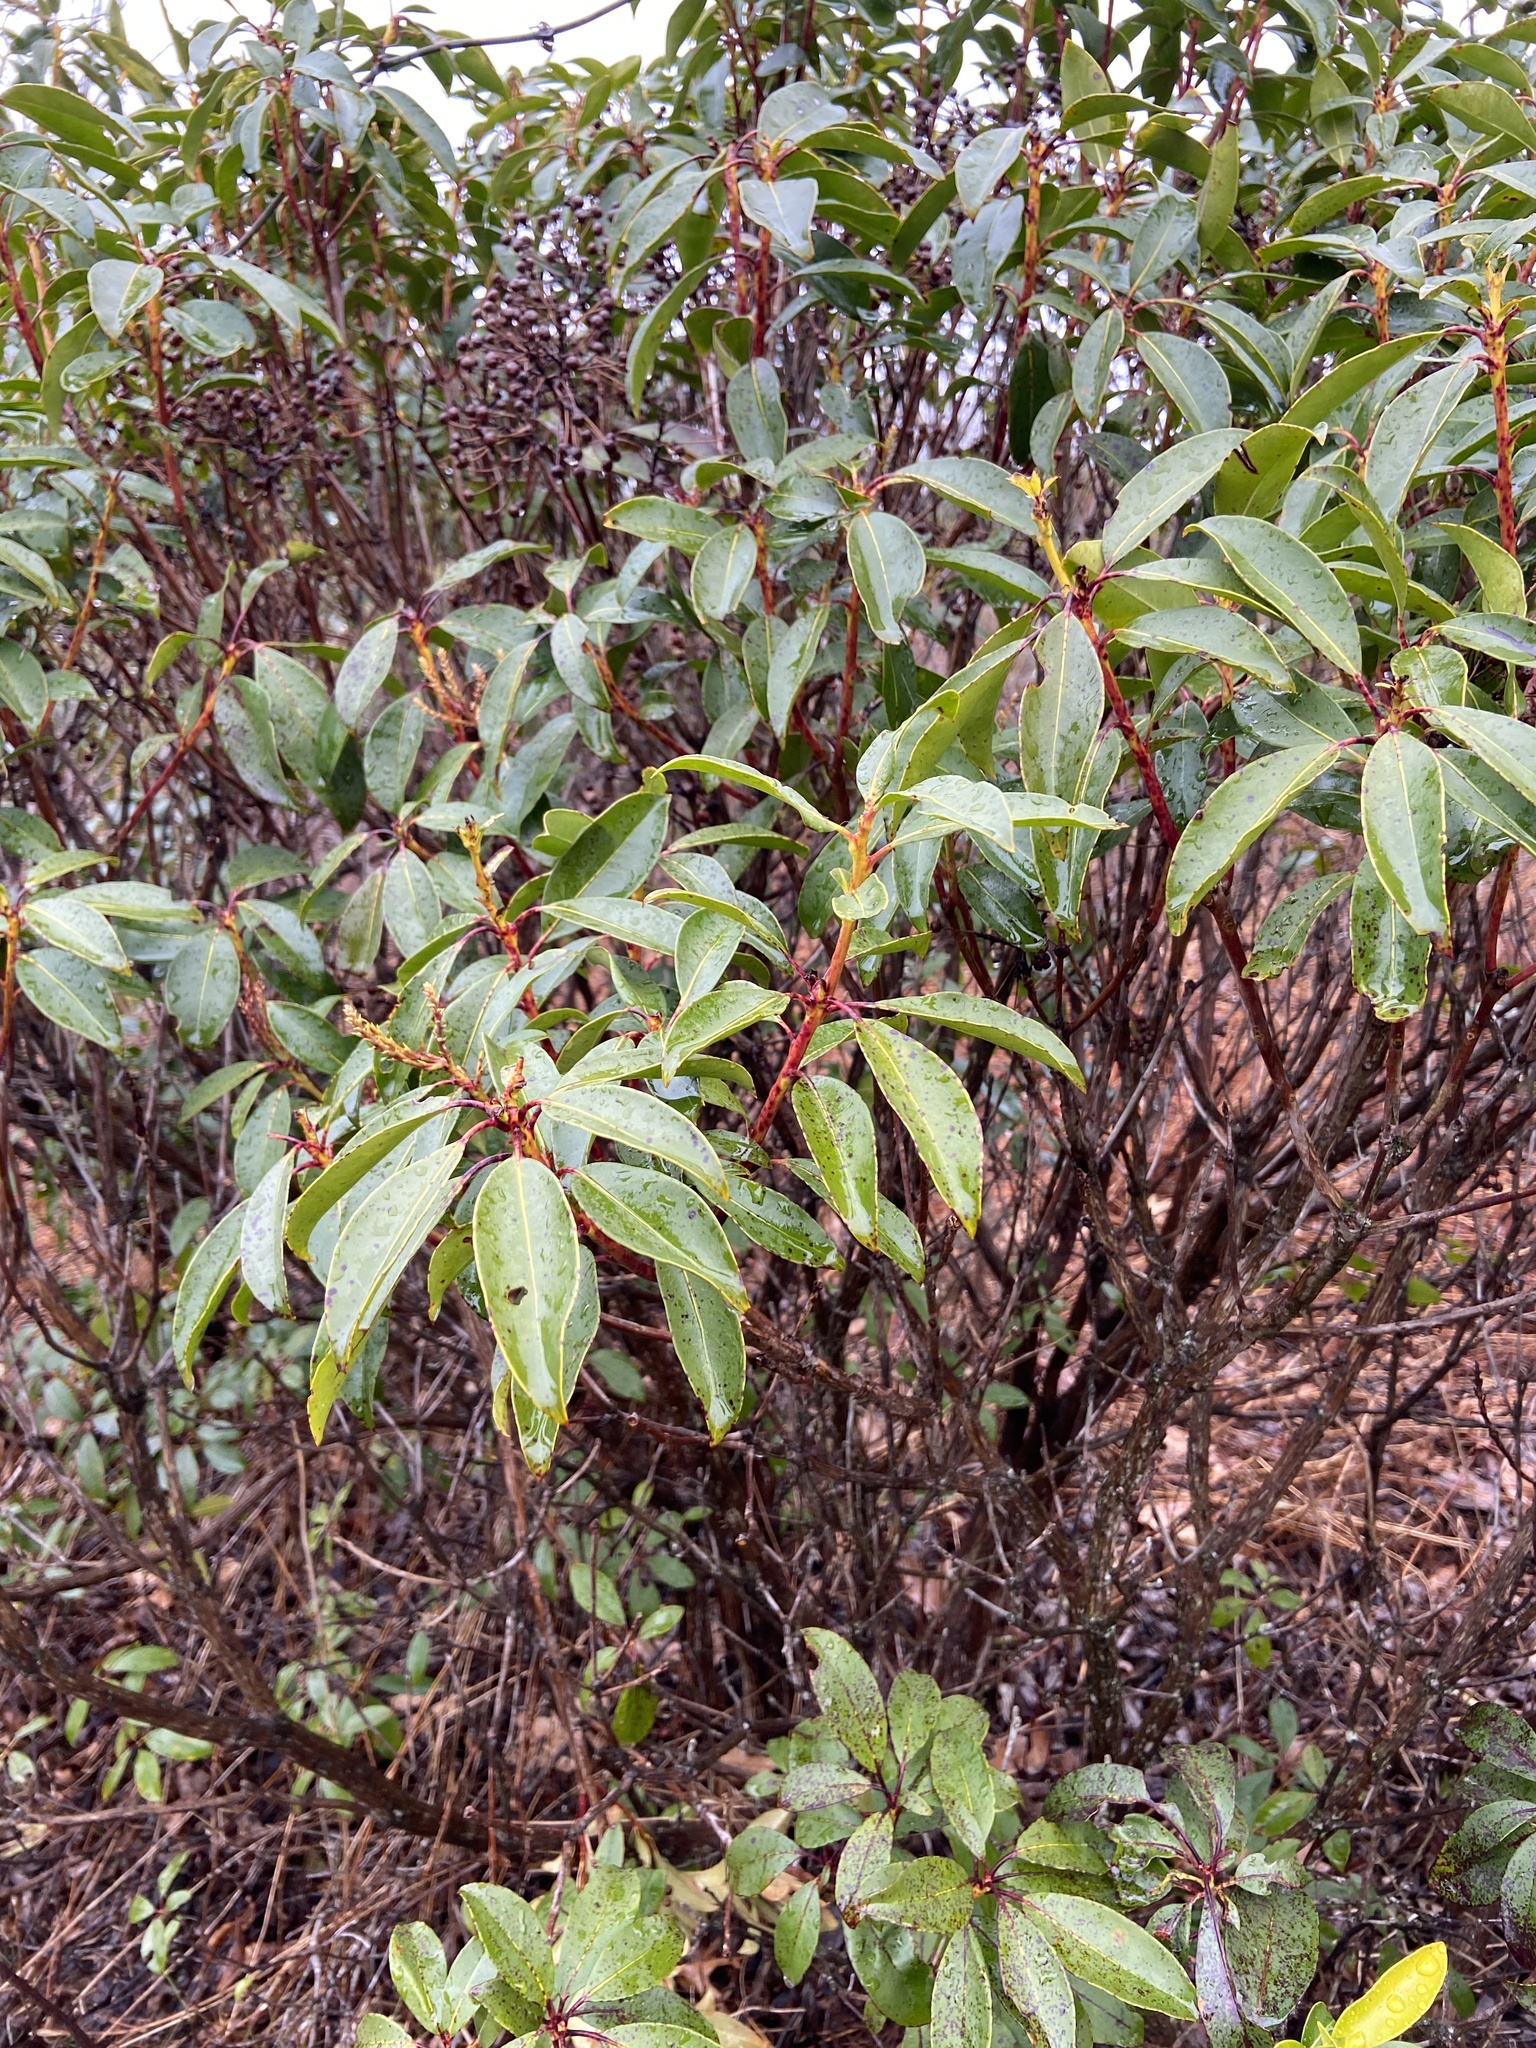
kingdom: Plantae
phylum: Tracheophyta
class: Magnoliopsida
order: Ericales
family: Ericaceae
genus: Kalmia
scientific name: Kalmia latifolia
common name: Mountain-laurel
